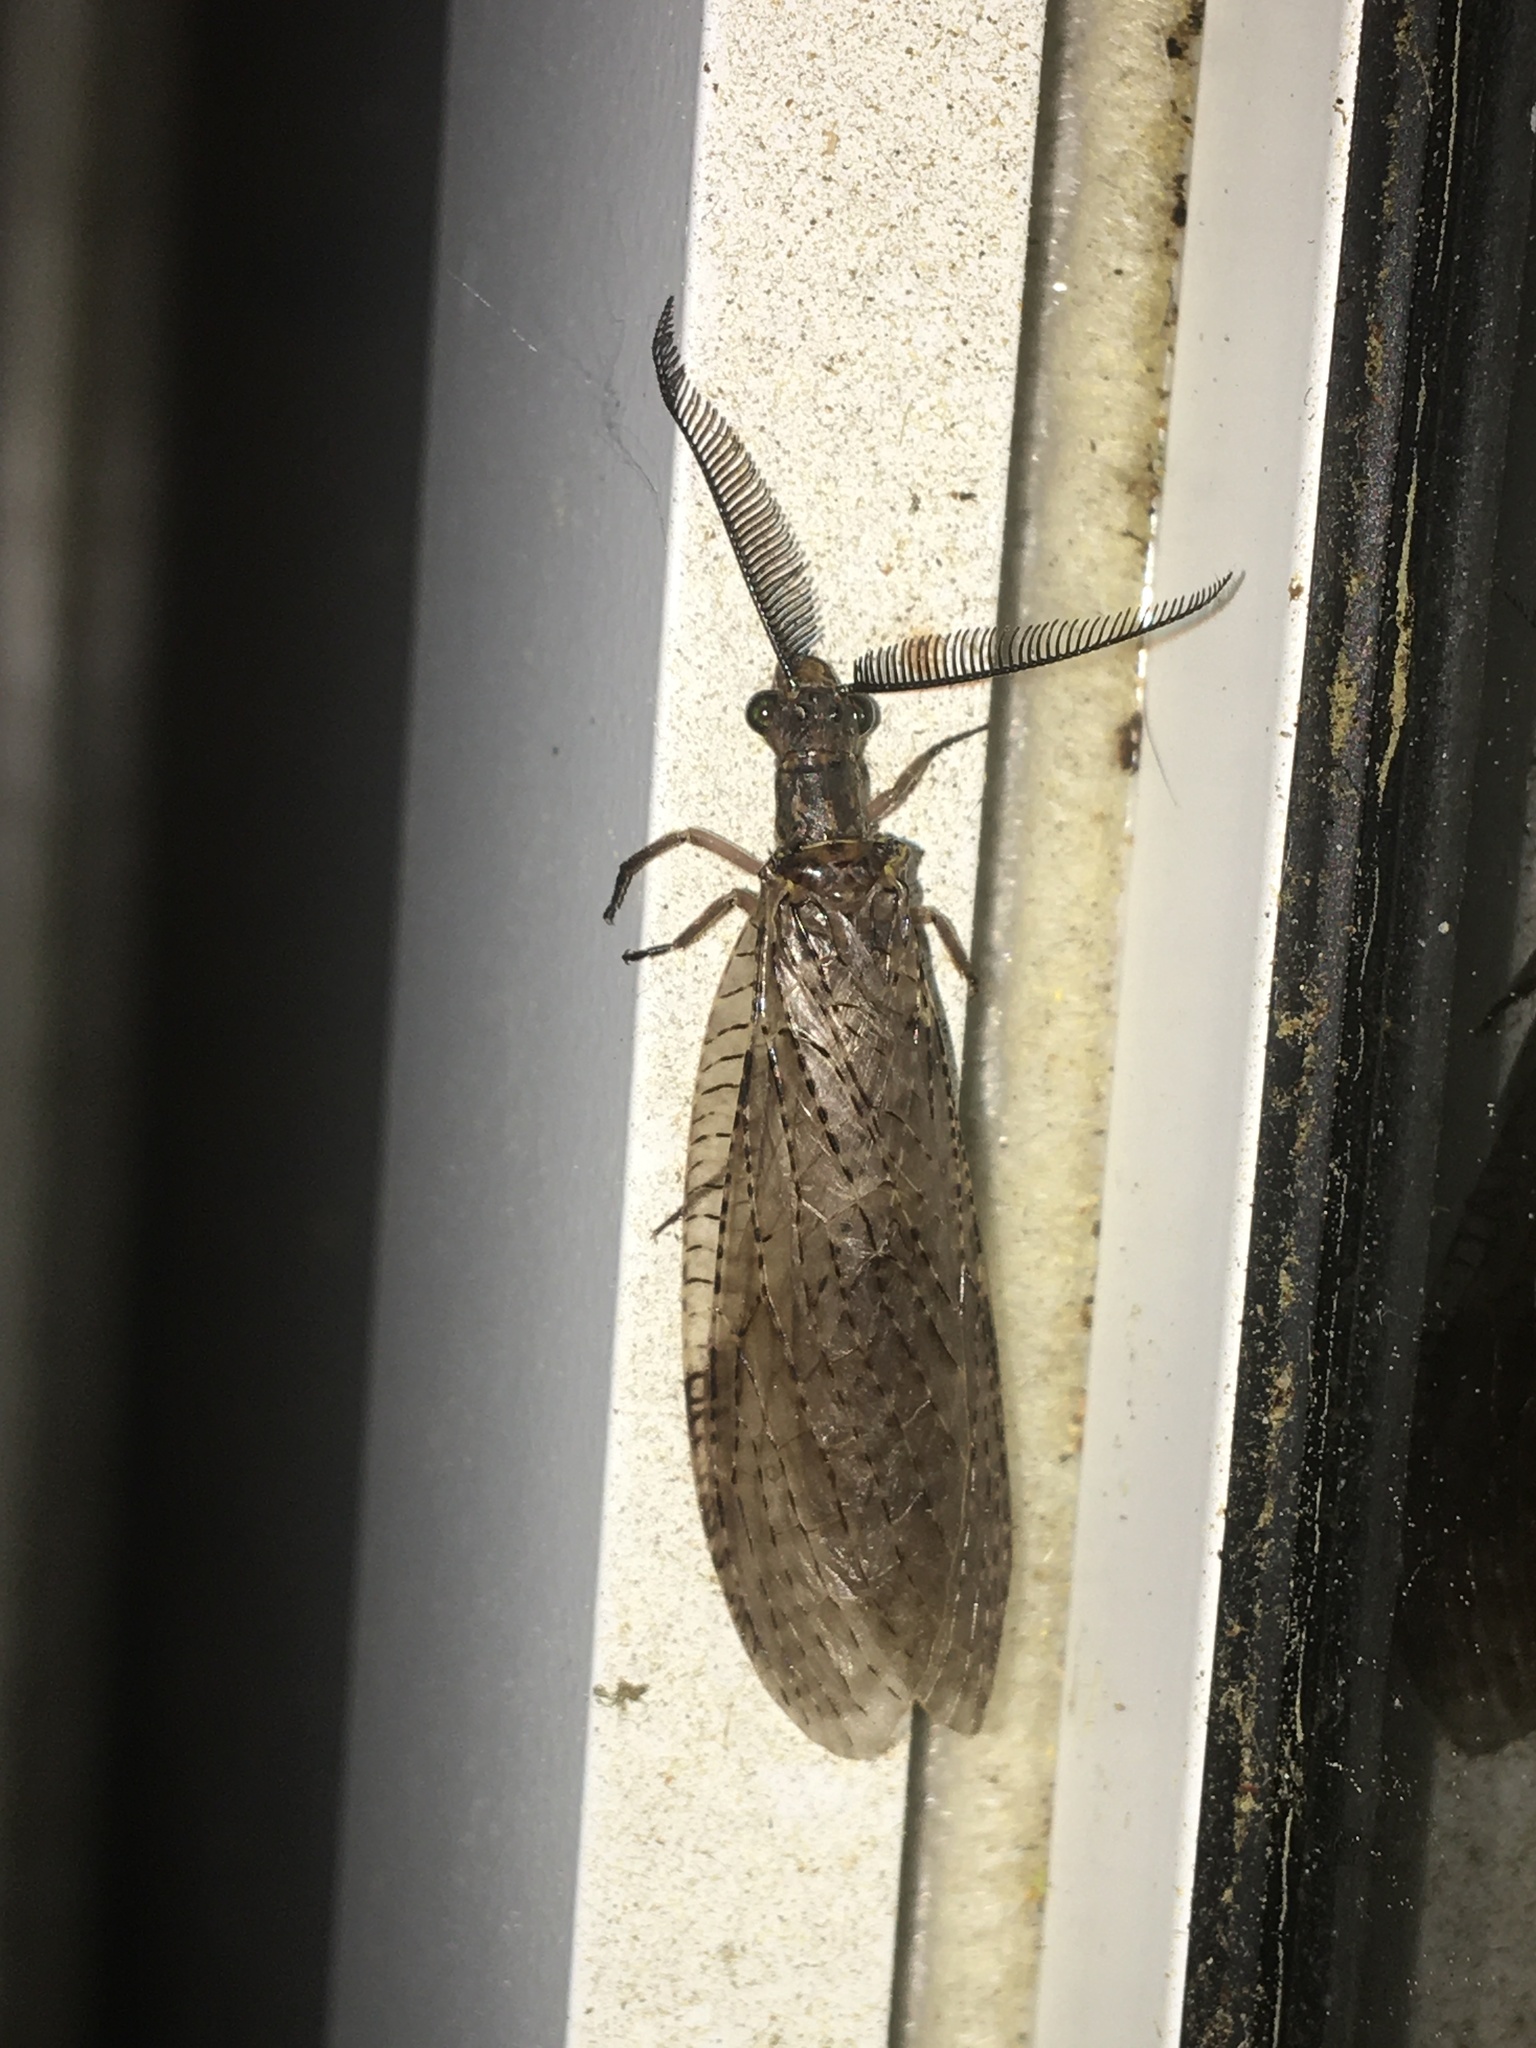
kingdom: Animalia
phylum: Arthropoda
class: Insecta
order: Megaloptera
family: Corydalidae
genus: Chauliodes
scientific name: Chauliodes pectinicornis
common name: Summer fishfly
